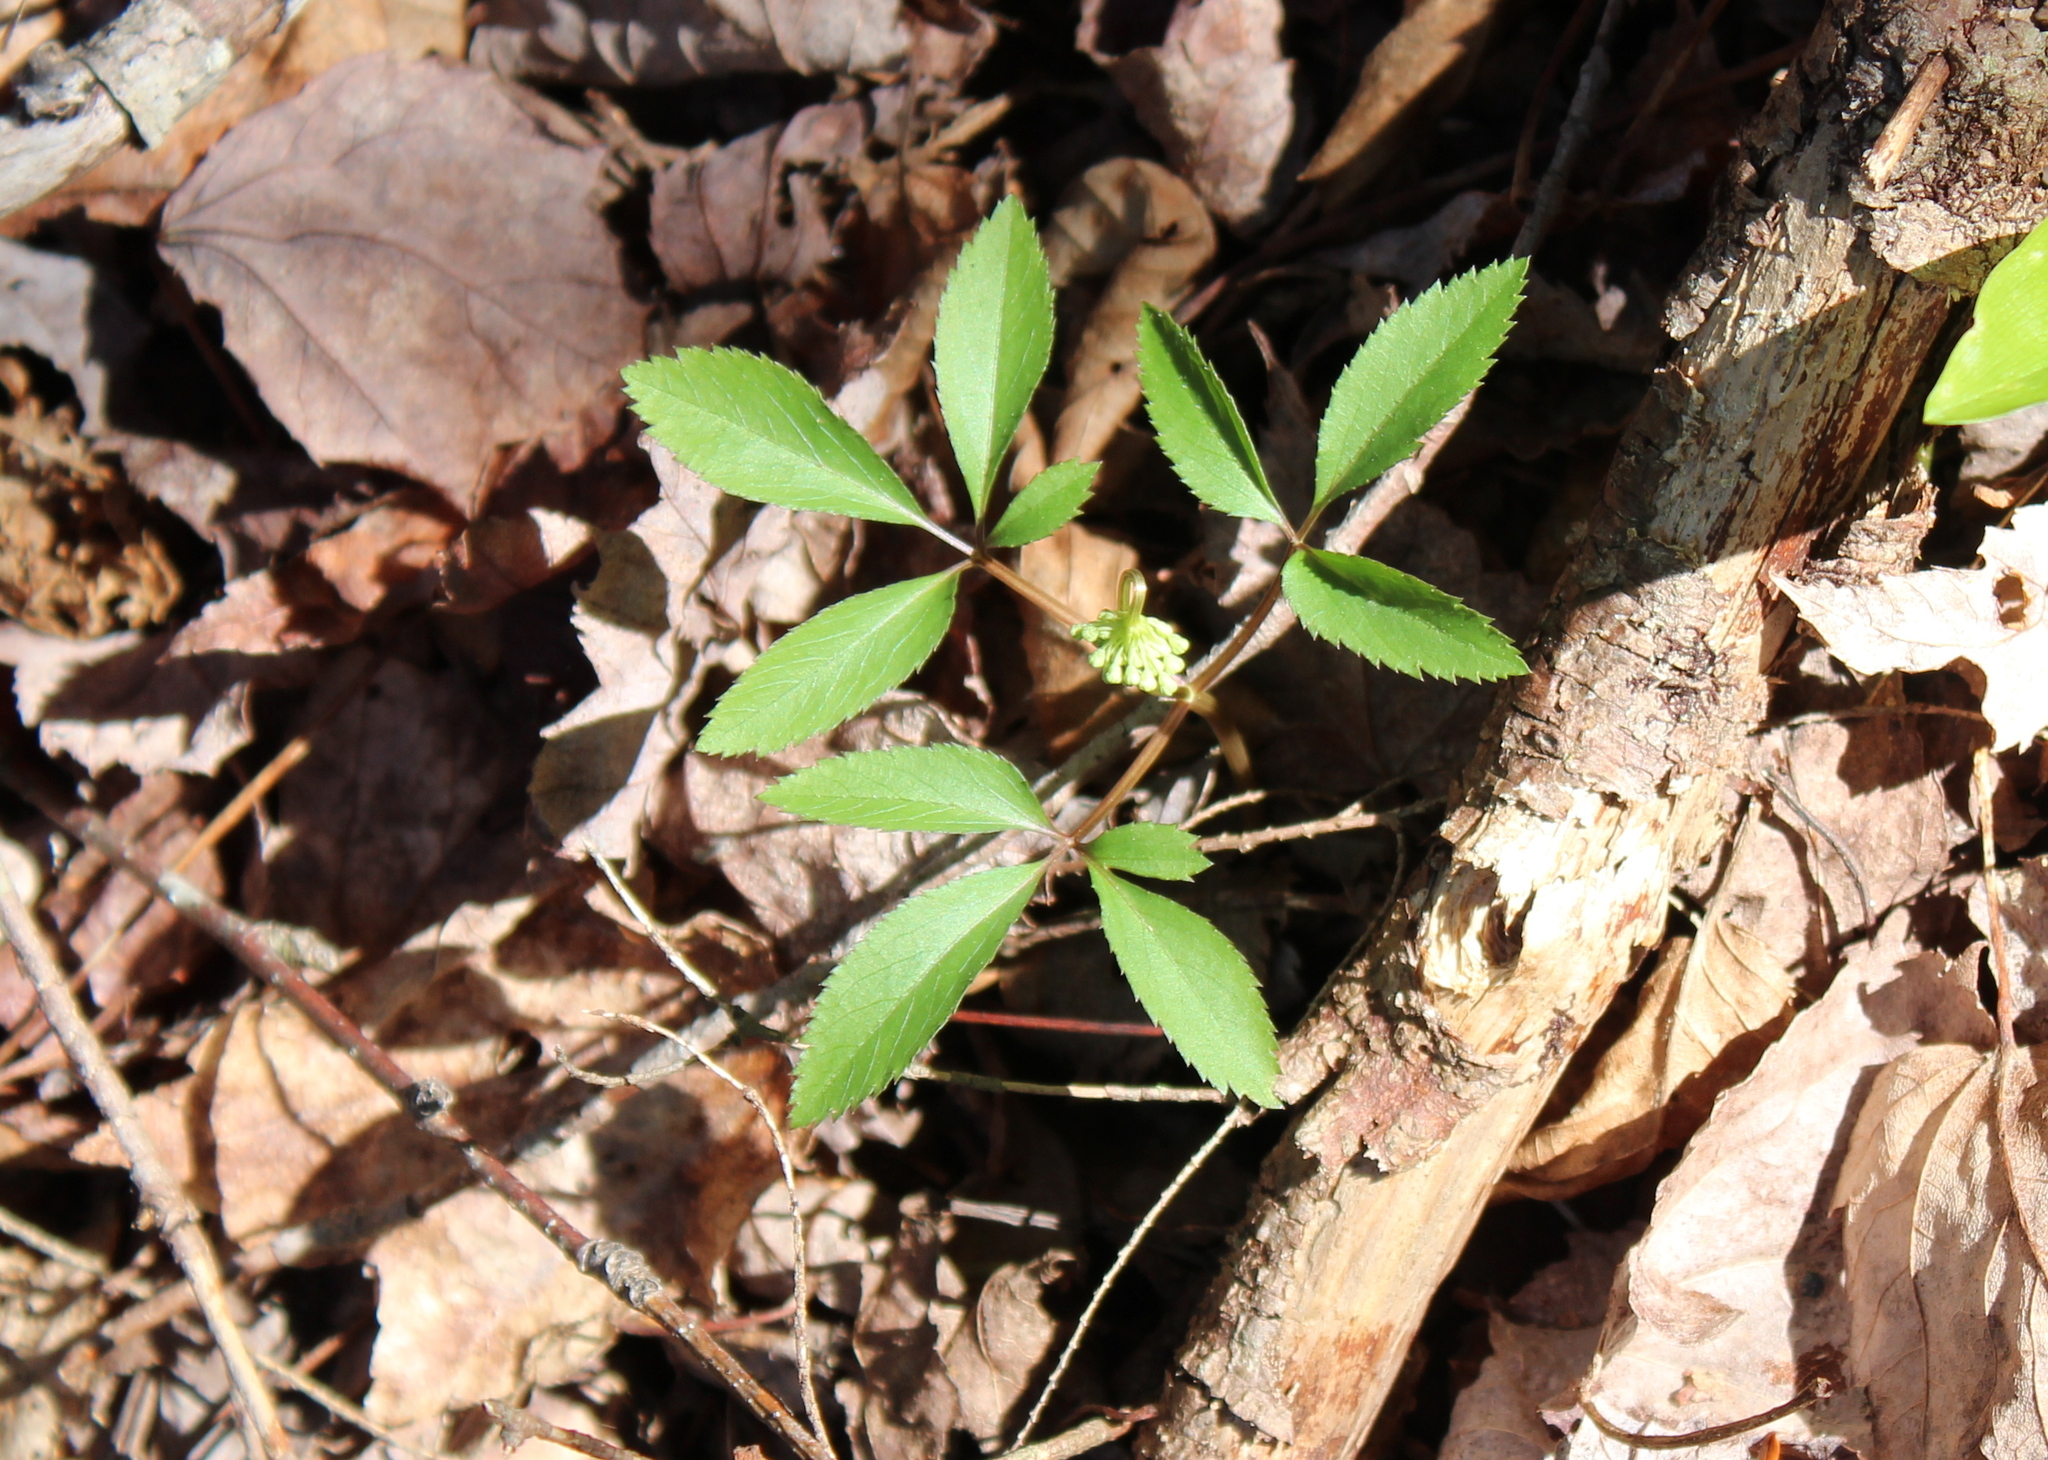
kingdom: Plantae
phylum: Tracheophyta
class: Magnoliopsida
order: Apiales
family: Araliaceae
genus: Panax
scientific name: Panax trifolius
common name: Dwarf ginseng
